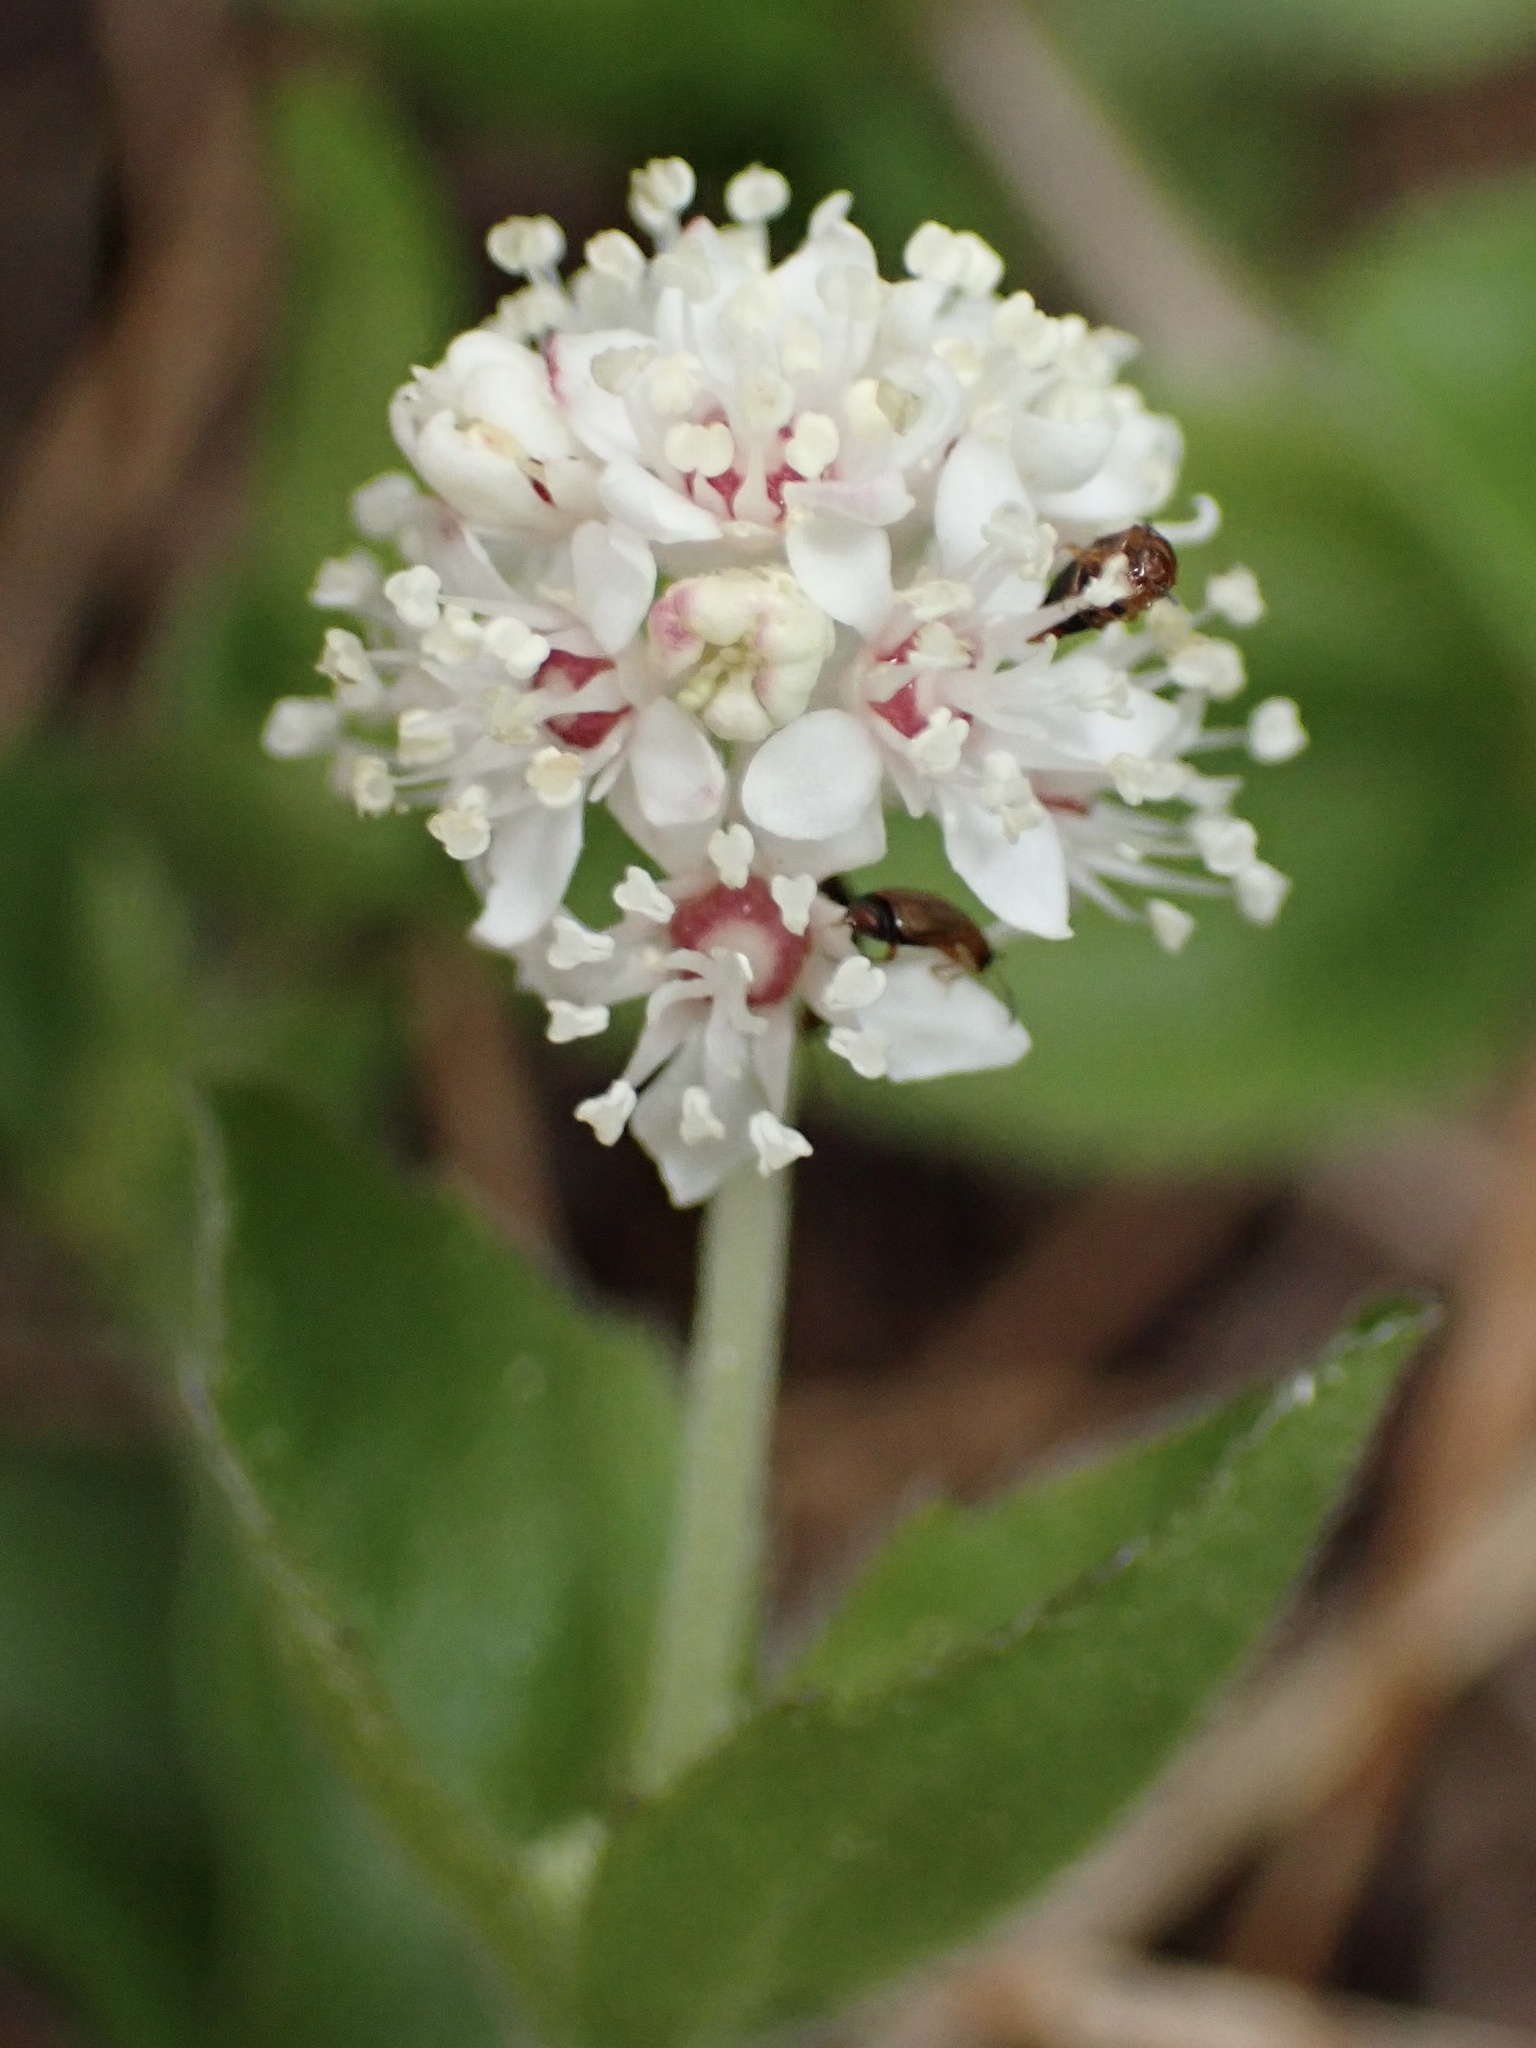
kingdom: Plantae
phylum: Tracheophyta
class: Magnoliopsida
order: Cornales
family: Hydrangeaceae
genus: Whipplea
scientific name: Whipplea modesta
